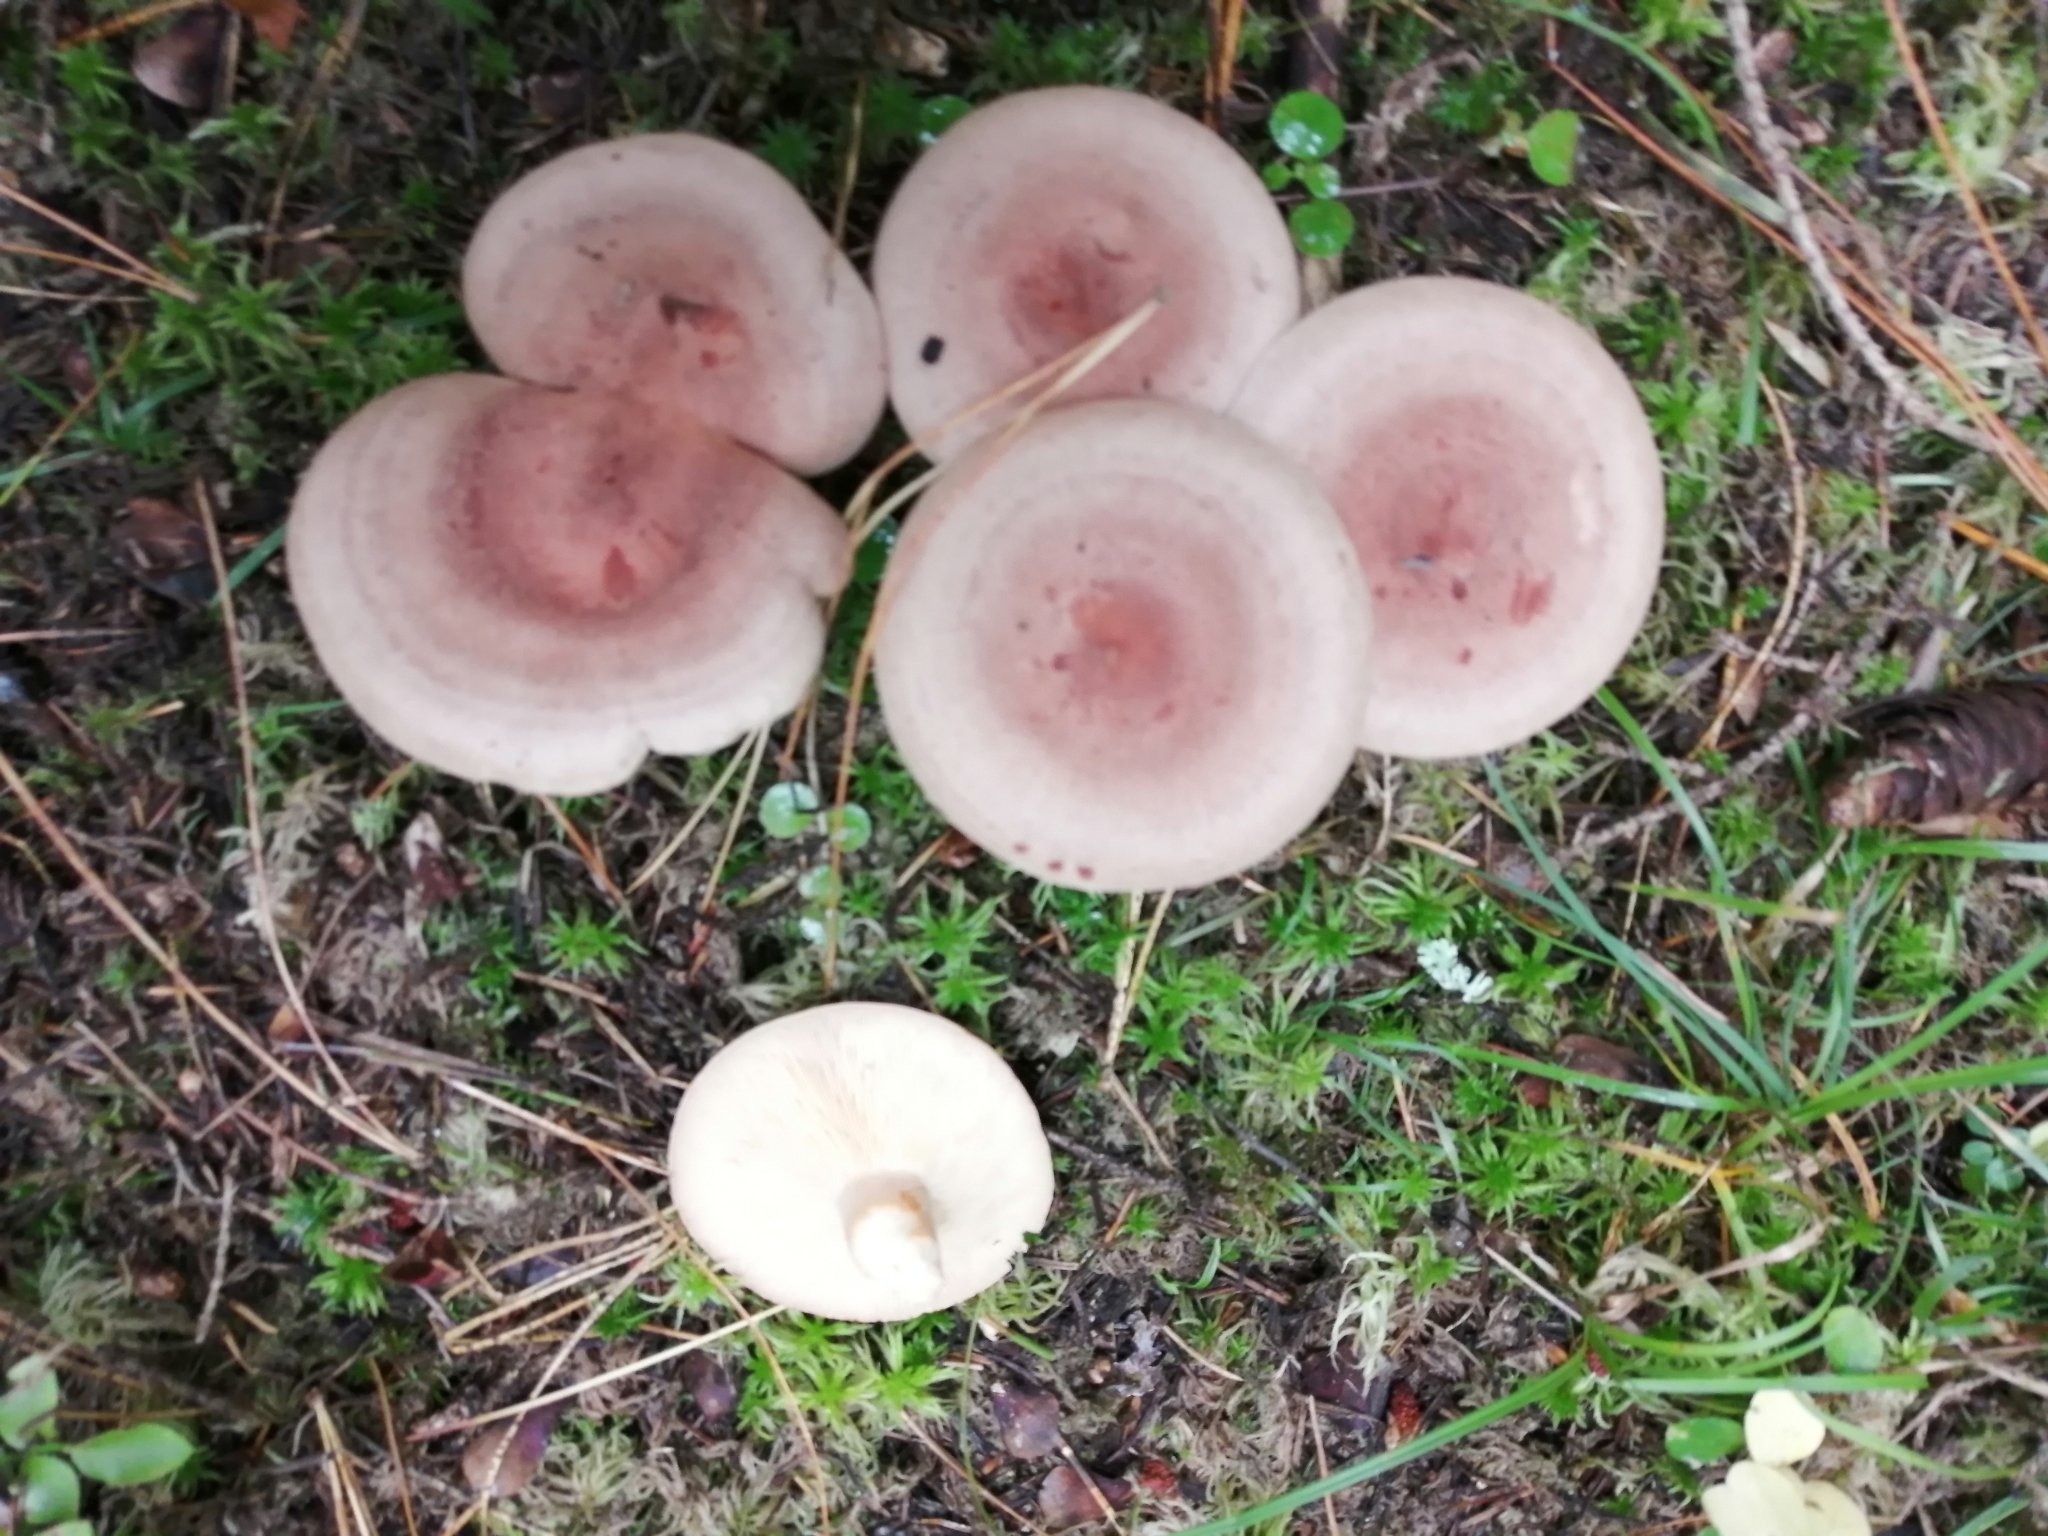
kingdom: Fungi
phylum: Basidiomycota
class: Agaricomycetes
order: Russulales
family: Russulaceae
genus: Lactarius
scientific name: Lactarius helvus
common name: Fenugreek milkcap
